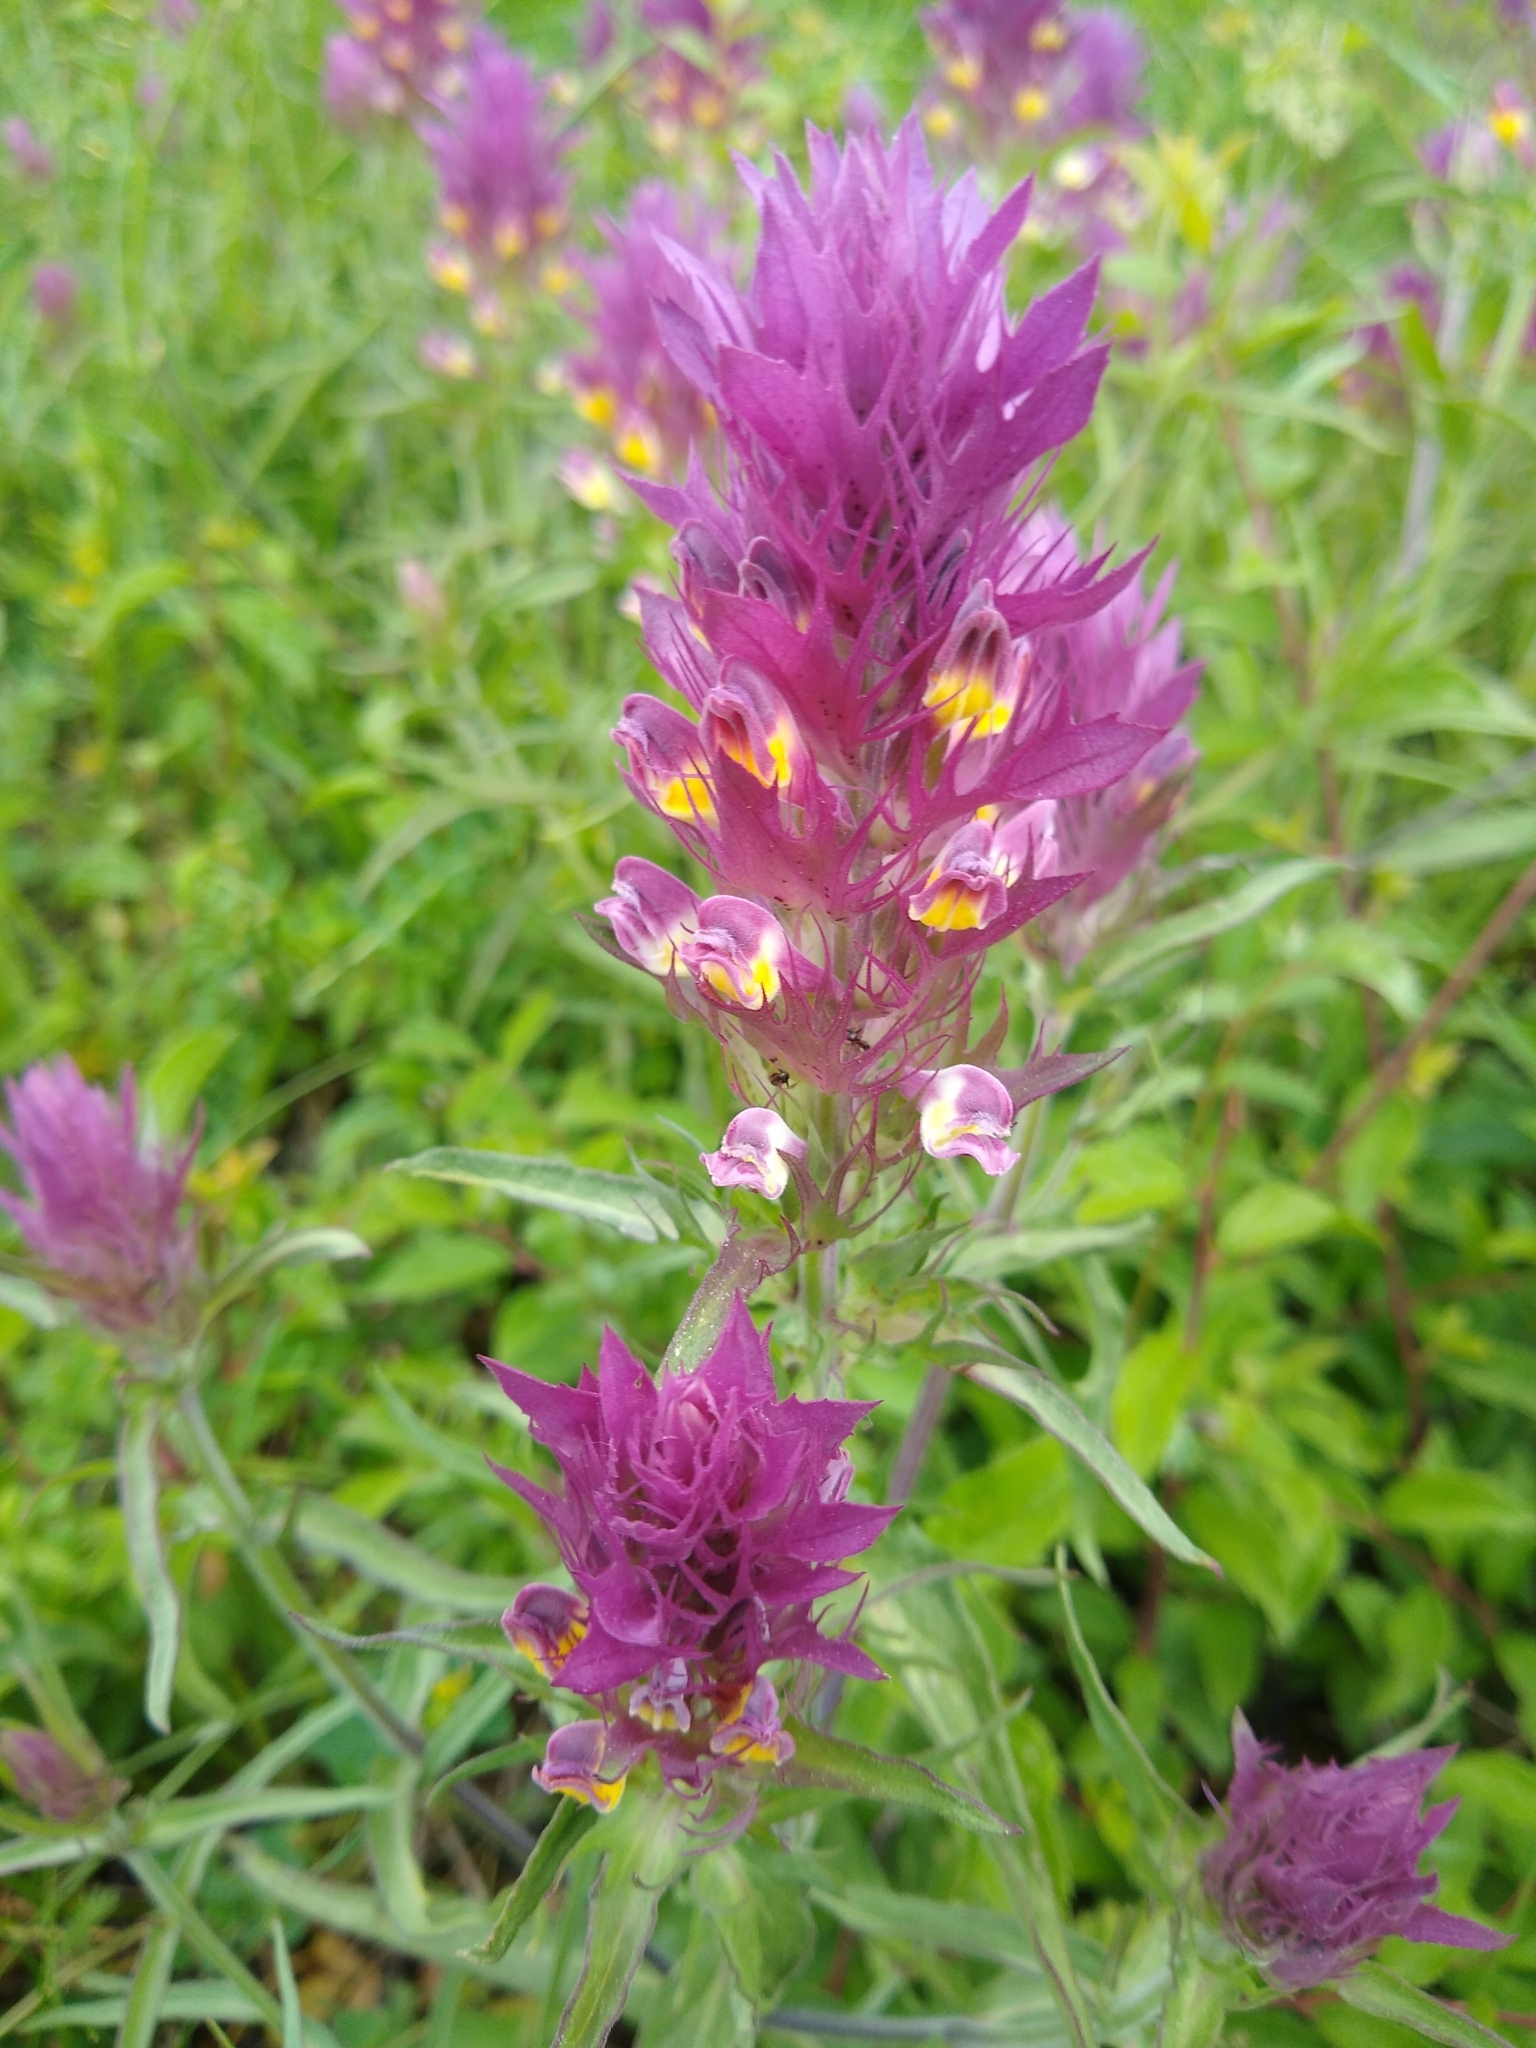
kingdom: Plantae
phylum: Tracheophyta
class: Magnoliopsida
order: Lamiales
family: Orobanchaceae
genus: Melampyrum
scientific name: Melampyrum arvense
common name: Field cow-wheat
